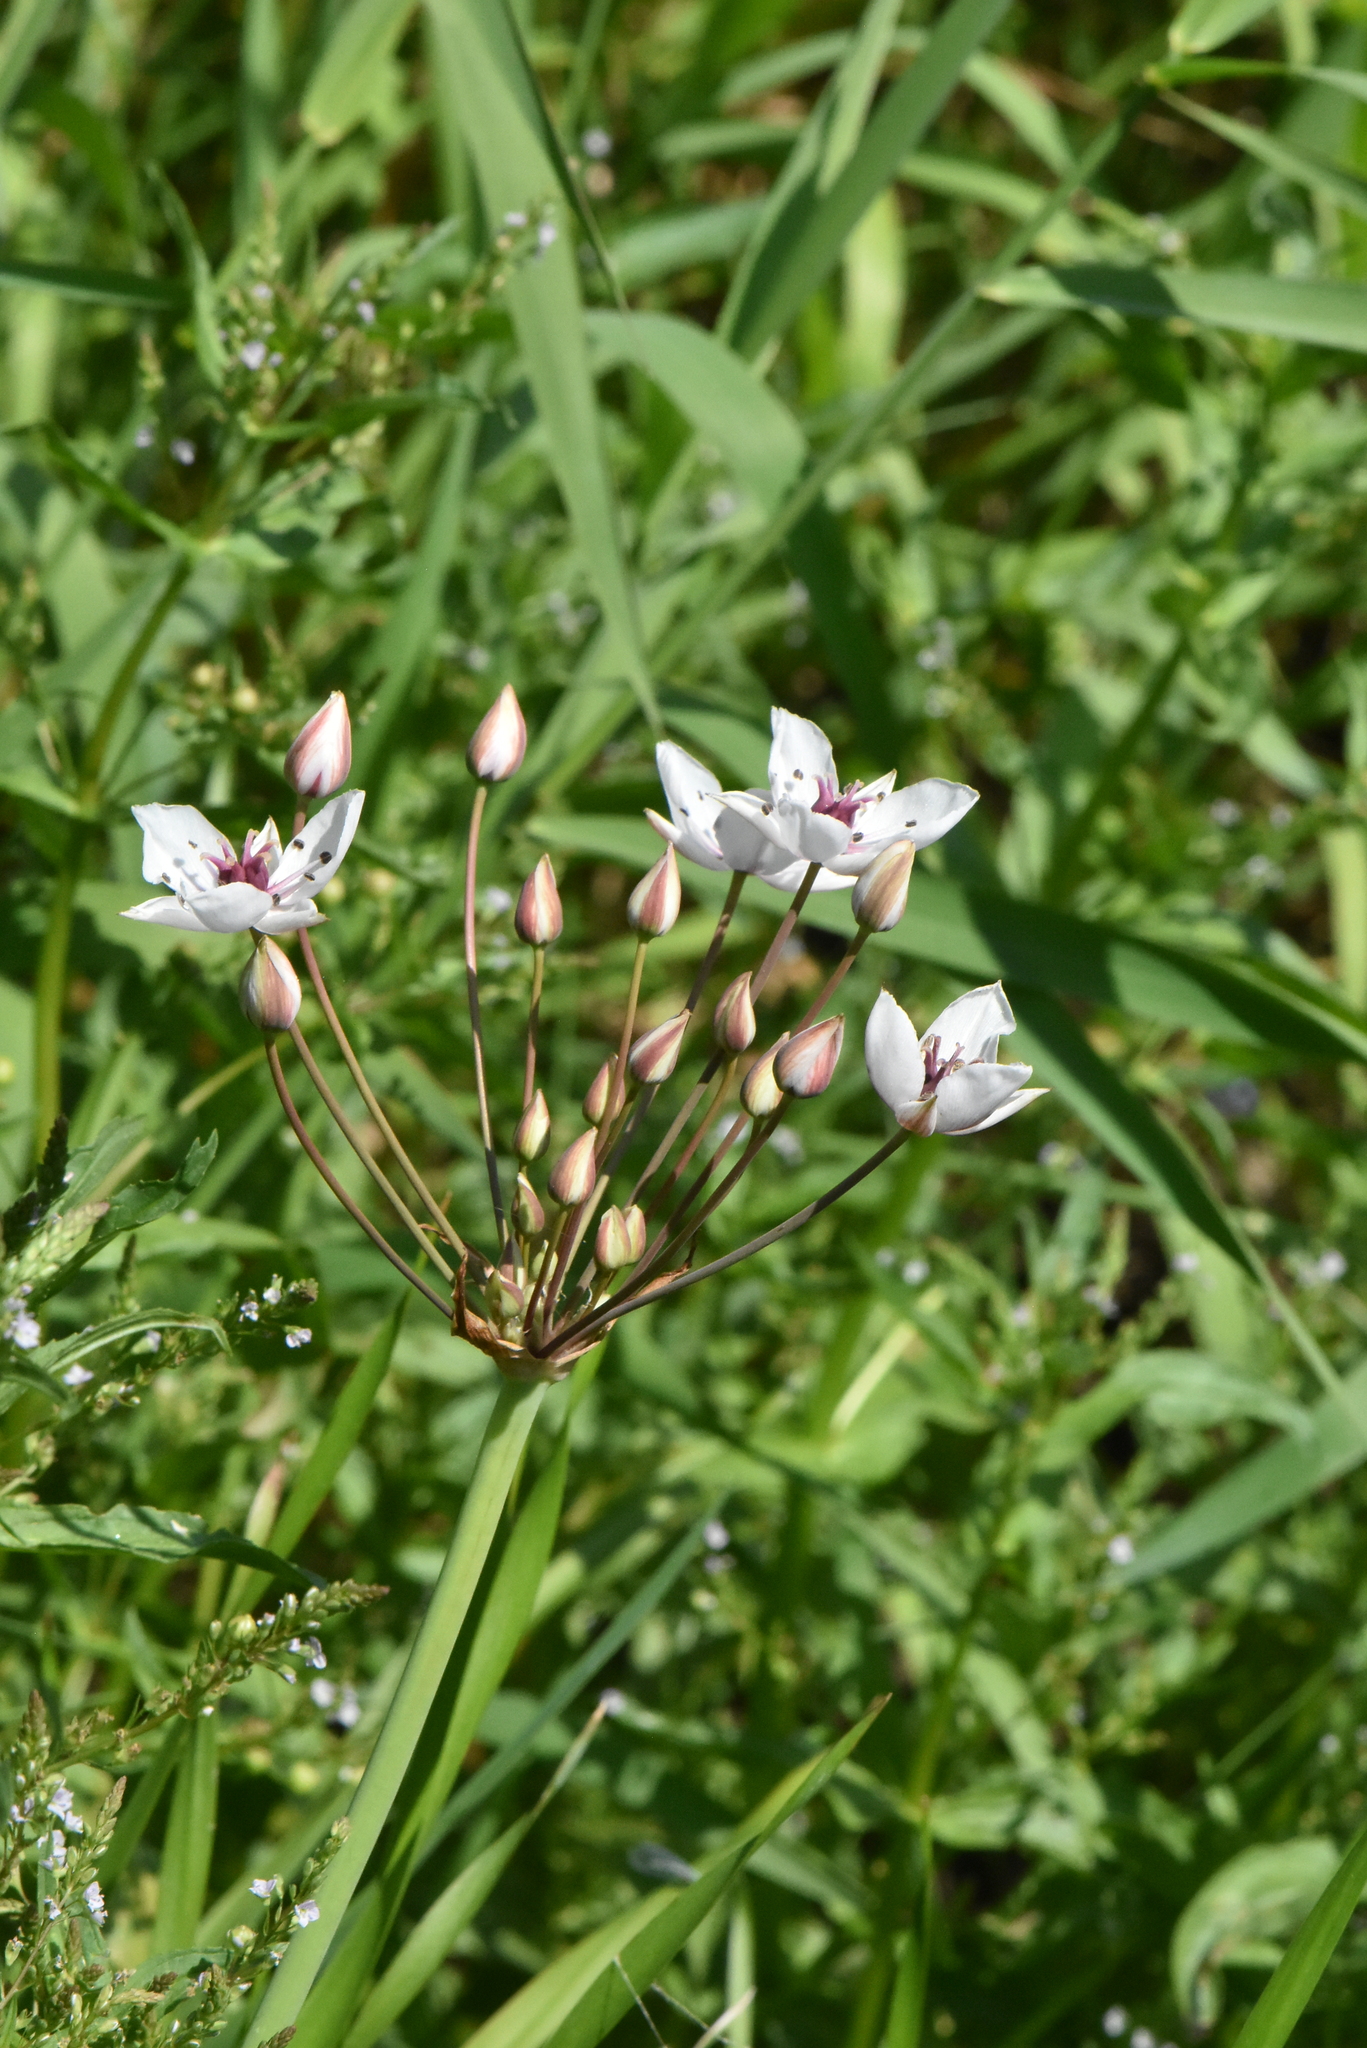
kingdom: Plantae
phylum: Tracheophyta
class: Liliopsida
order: Alismatales
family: Butomaceae
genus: Butomus
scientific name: Butomus umbellatus
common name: Flowering-rush
